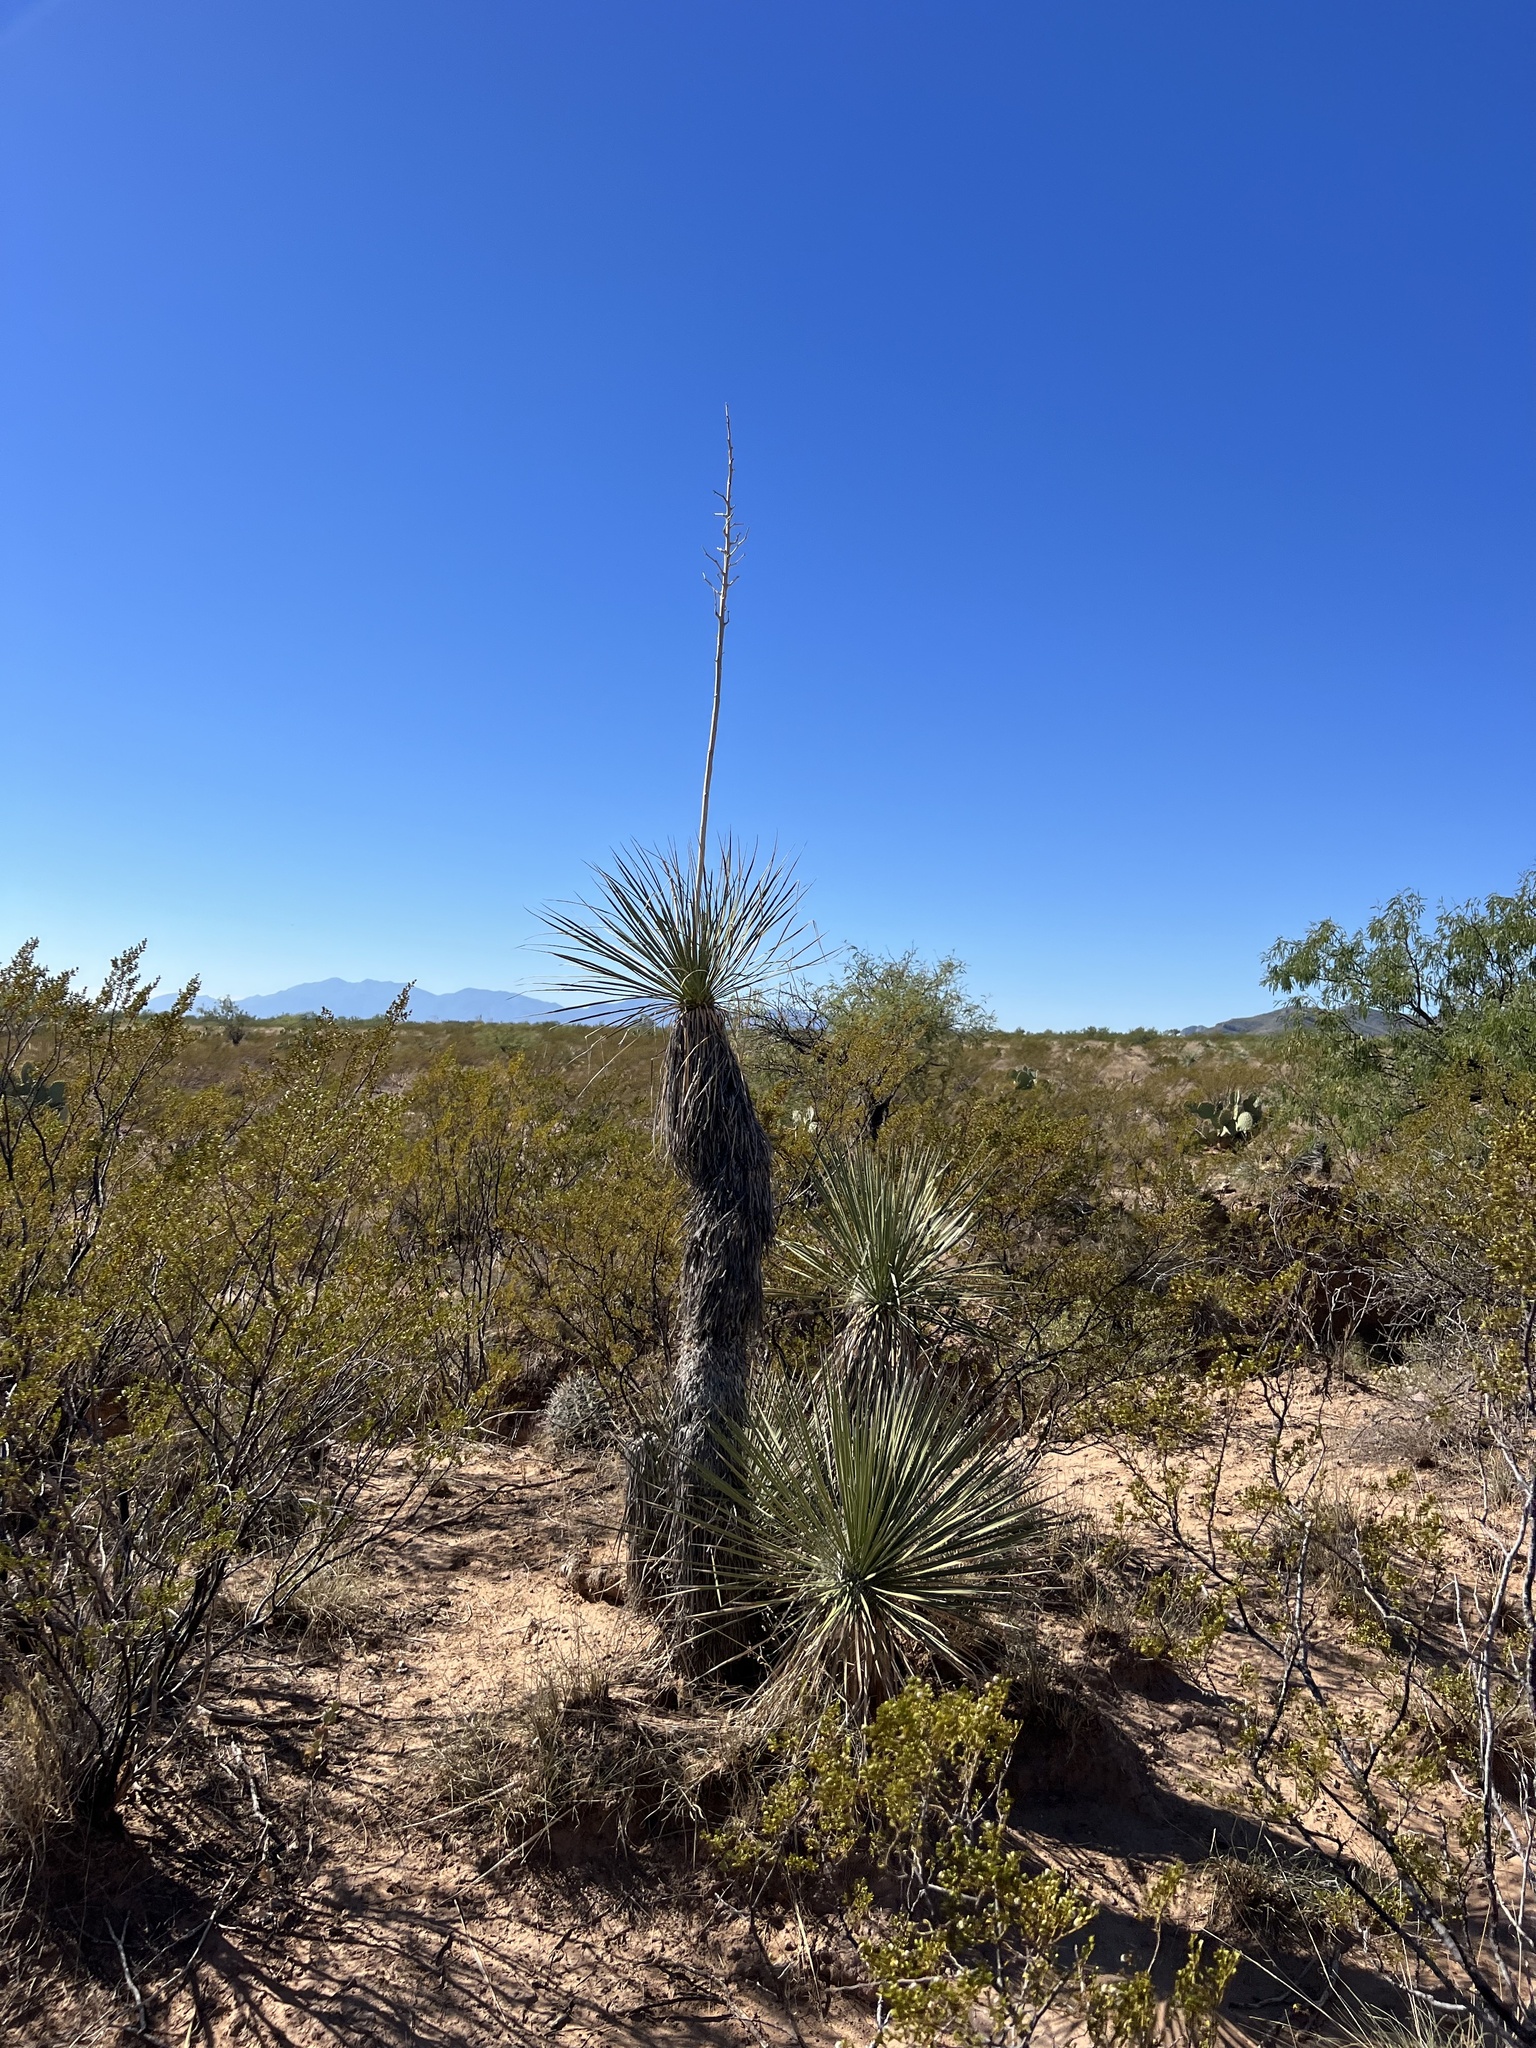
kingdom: Plantae
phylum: Tracheophyta
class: Liliopsida
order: Asparagales
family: Asparagaceae
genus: Yucca
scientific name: Yucca elata
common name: Palmella
